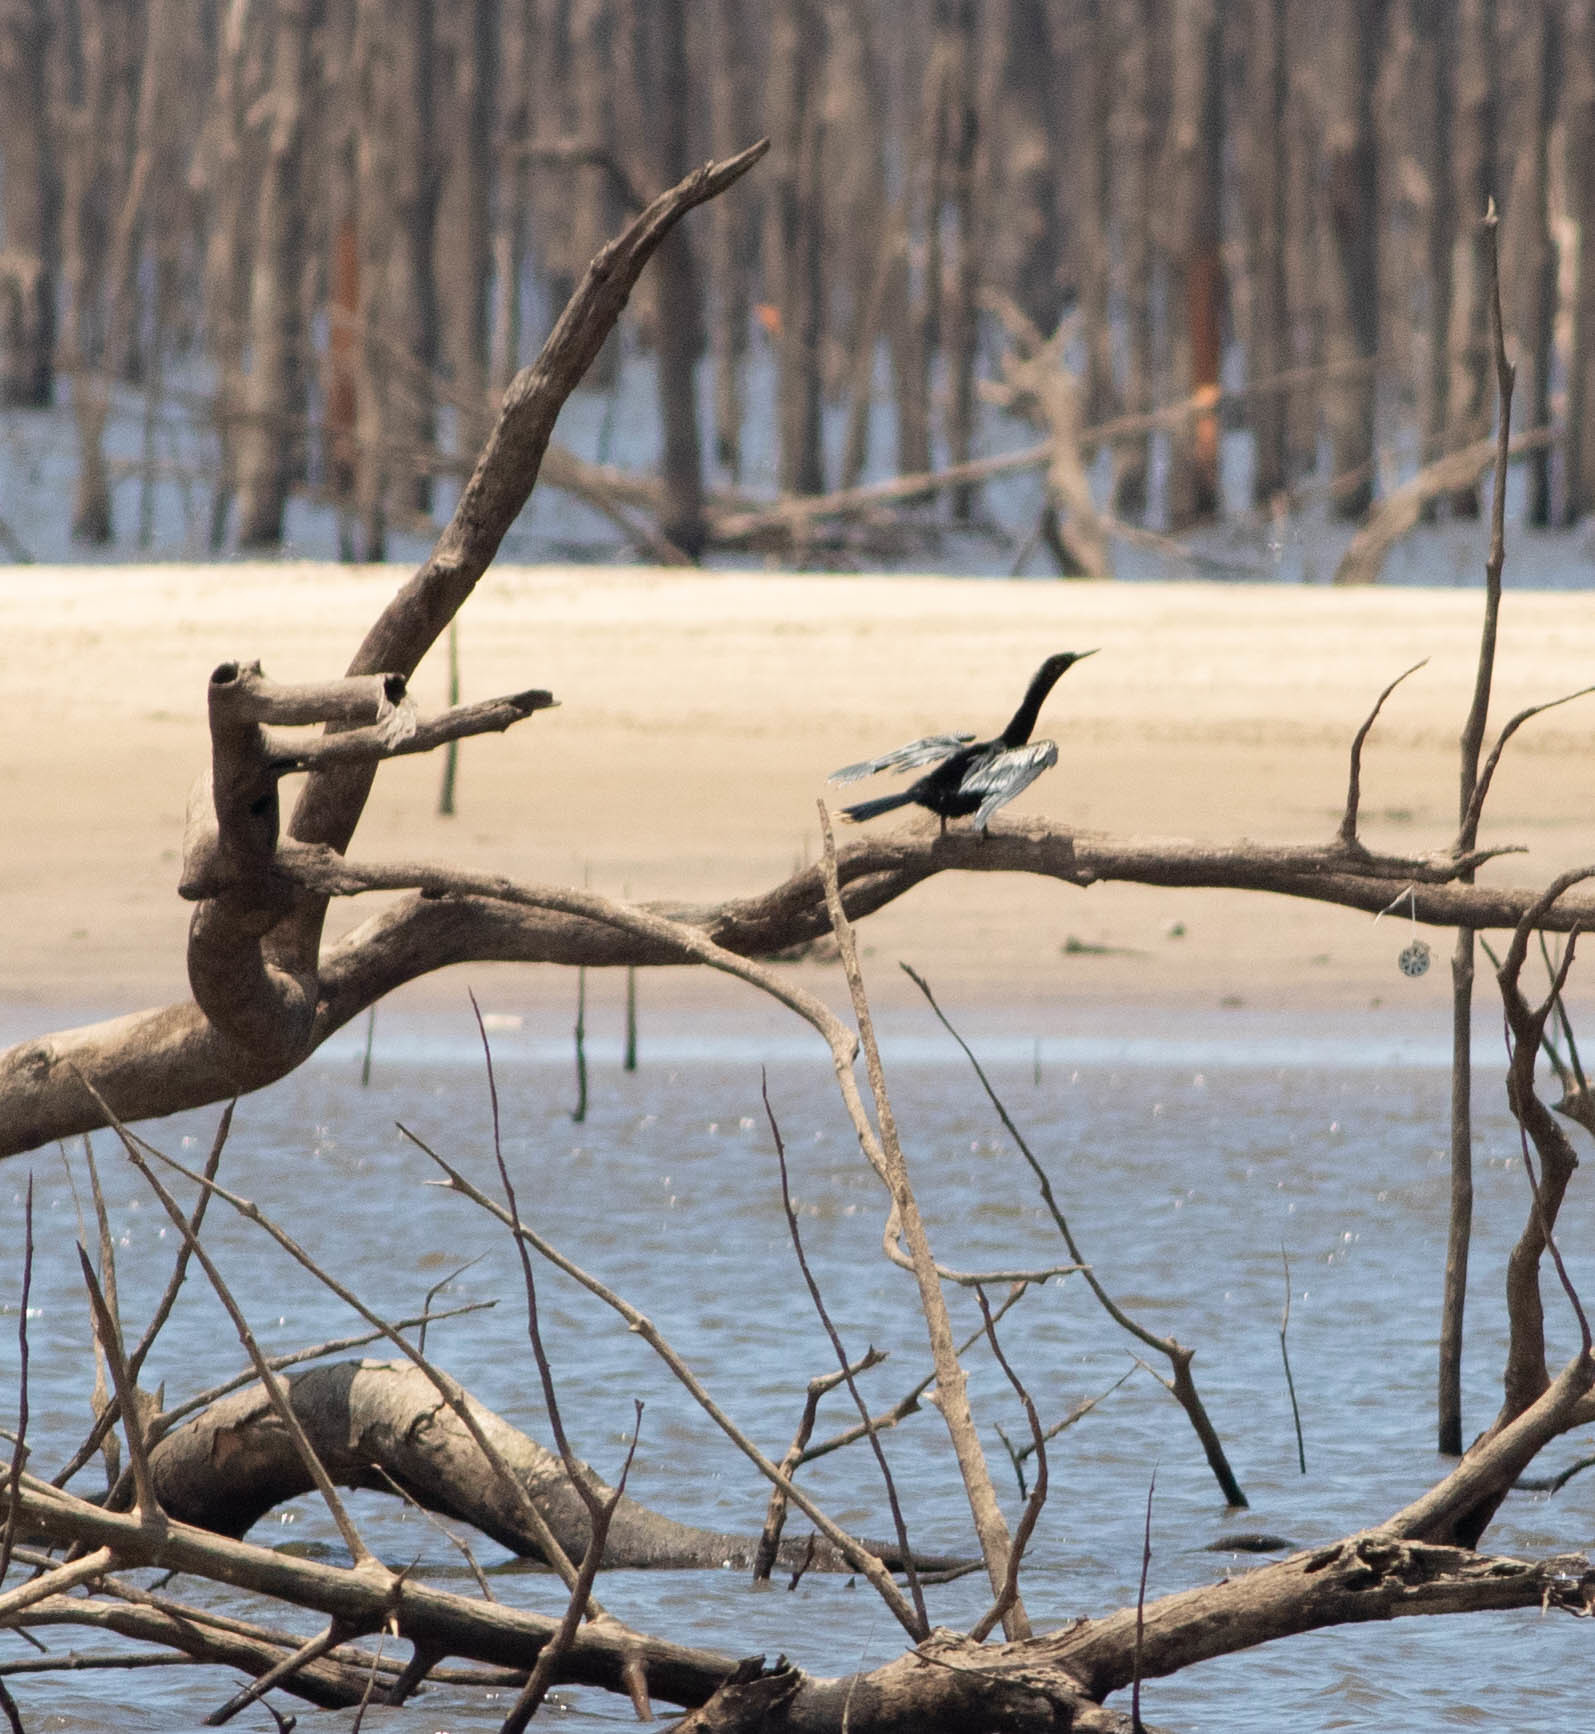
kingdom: Animalia
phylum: Chordata
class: Aves
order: Suliformes
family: Anhingidae
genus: Anhinga
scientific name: Anhinga anhinga
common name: Anhinga
